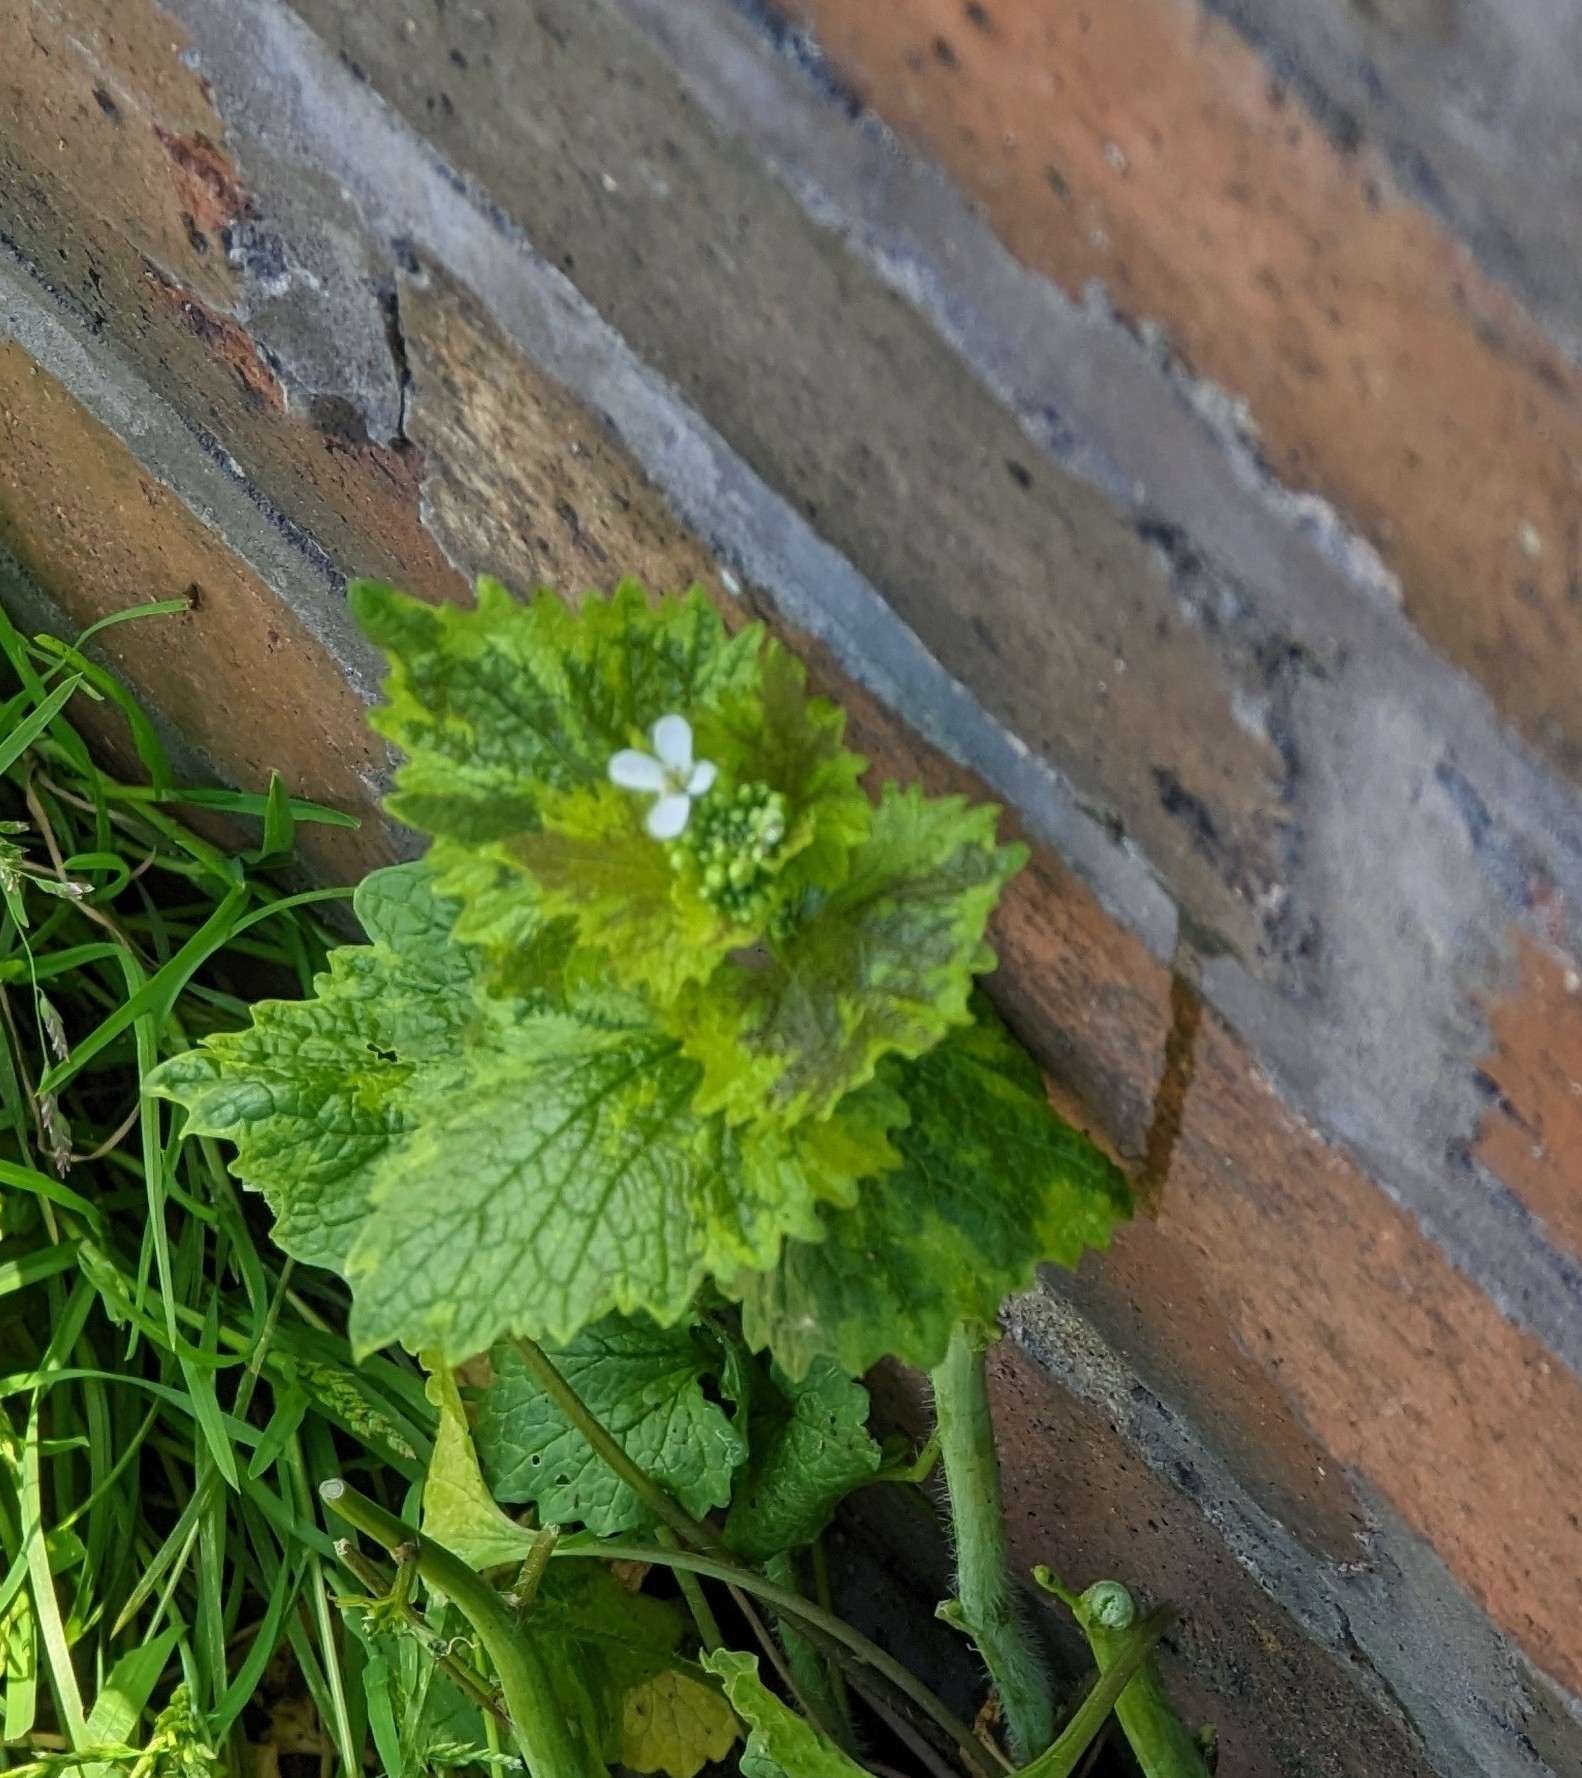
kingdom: Plantae
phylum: Tracheophyta
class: Magnoliopsida
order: Brassicales
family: Brassicaceae
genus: Alliaria
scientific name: Alliaria petiolata
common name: Garlic mustard
